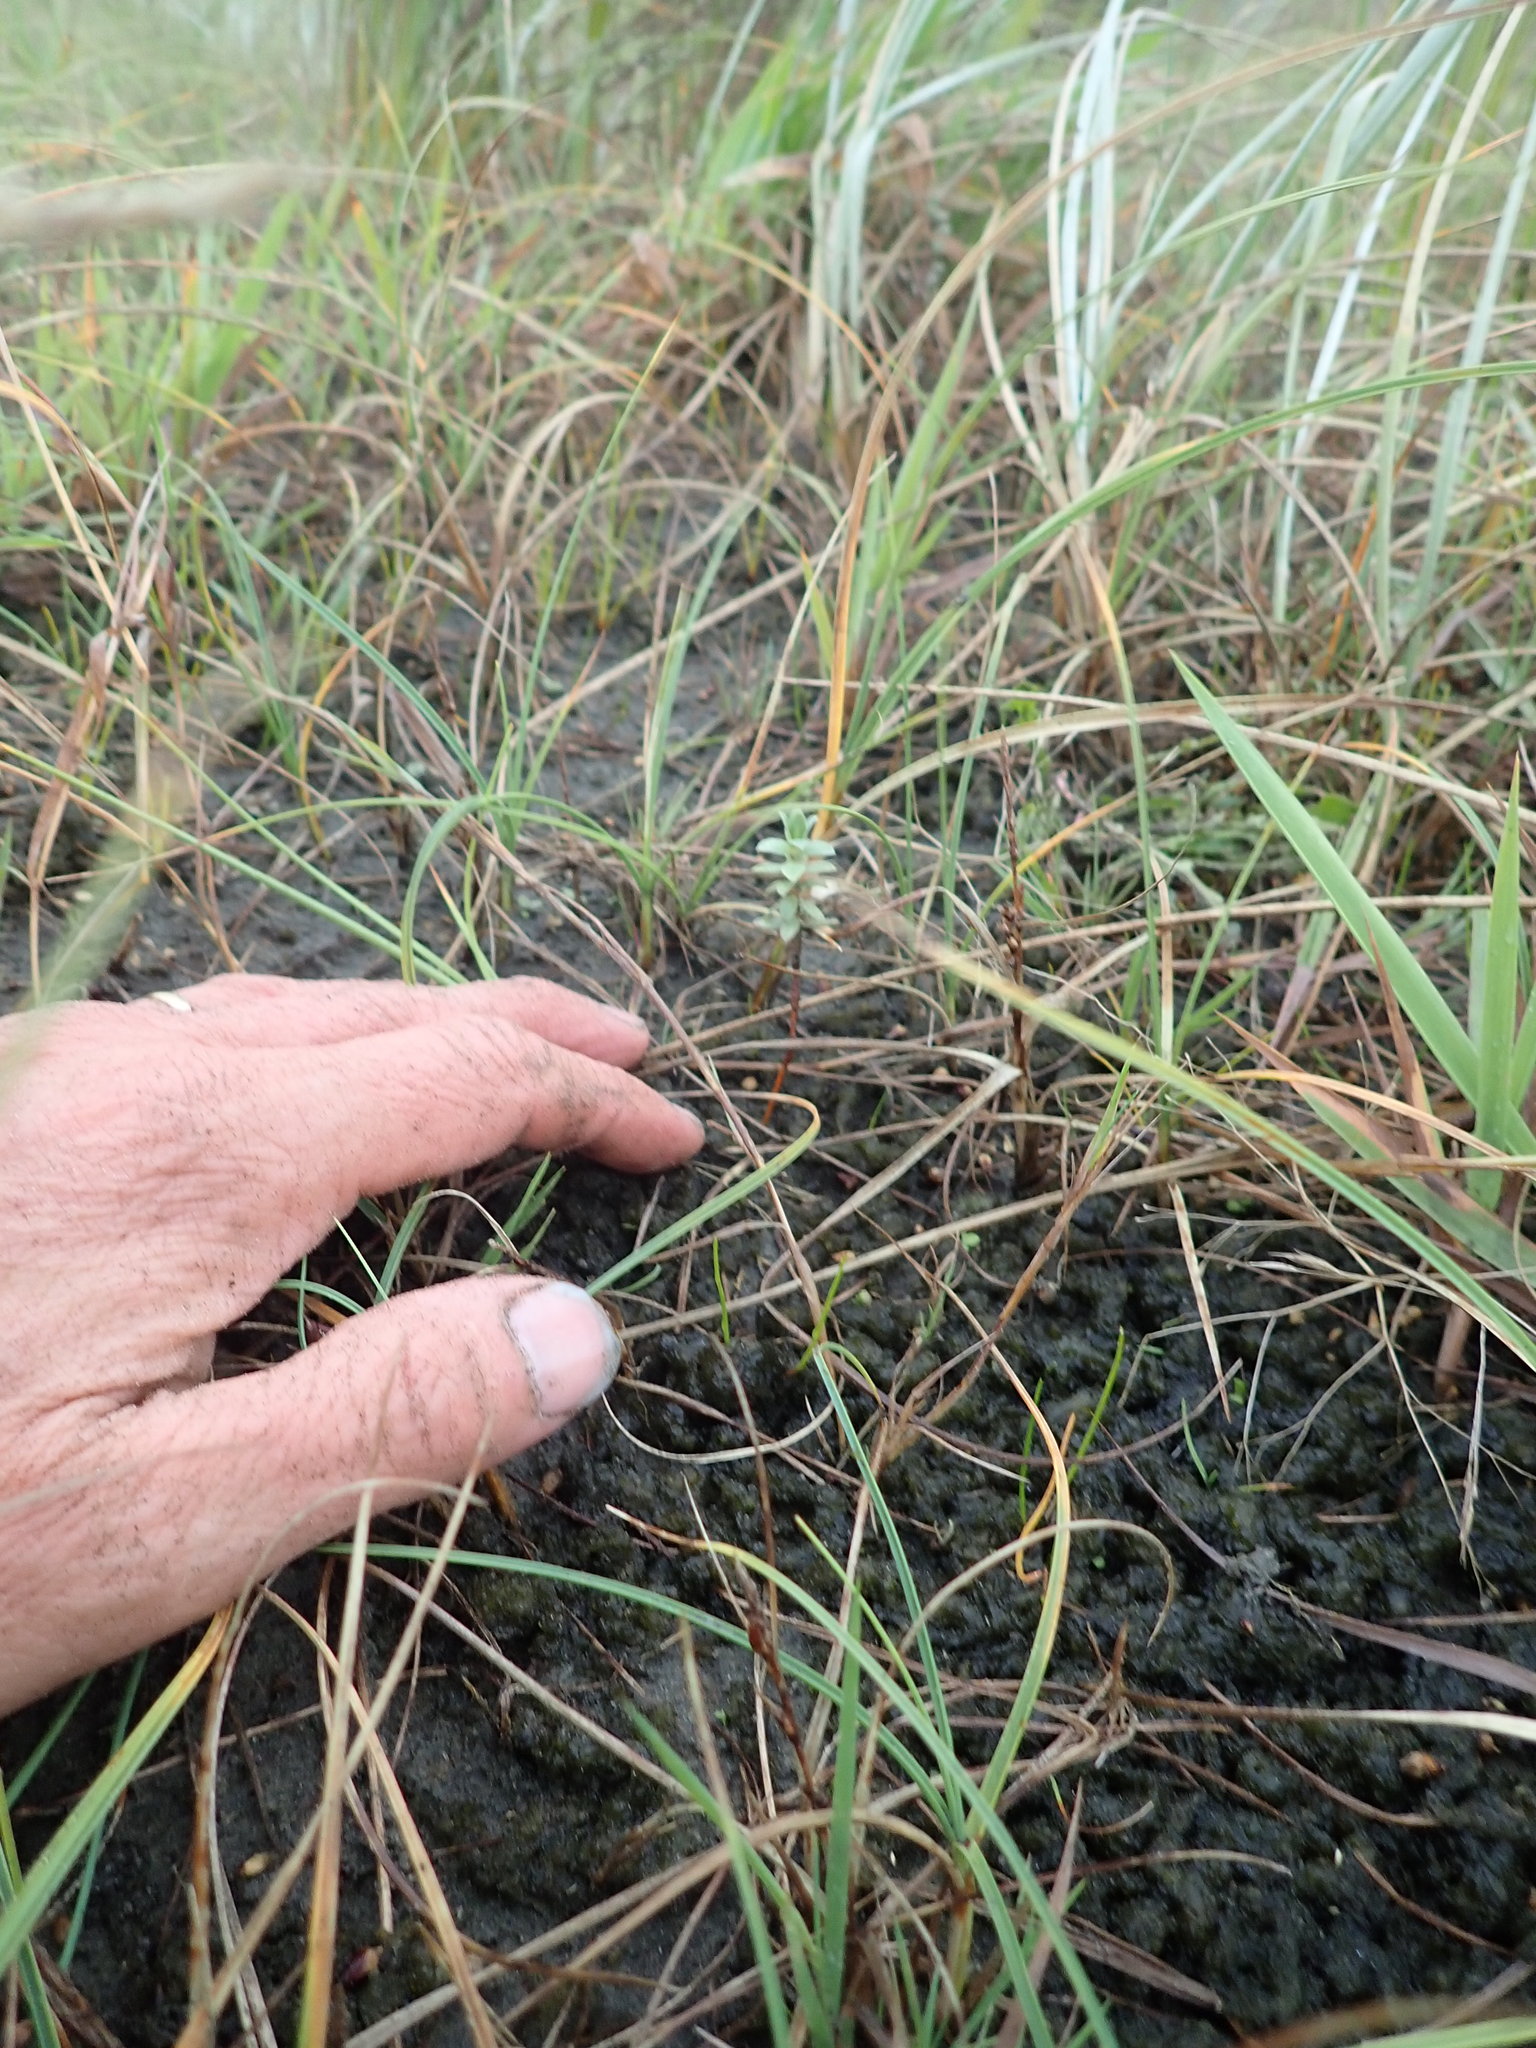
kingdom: Plantae
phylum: Tracheophyta
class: Magnoliopsida
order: Malvales
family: Thymelaeaceae
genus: Pimelea
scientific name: Pimelea villosa
